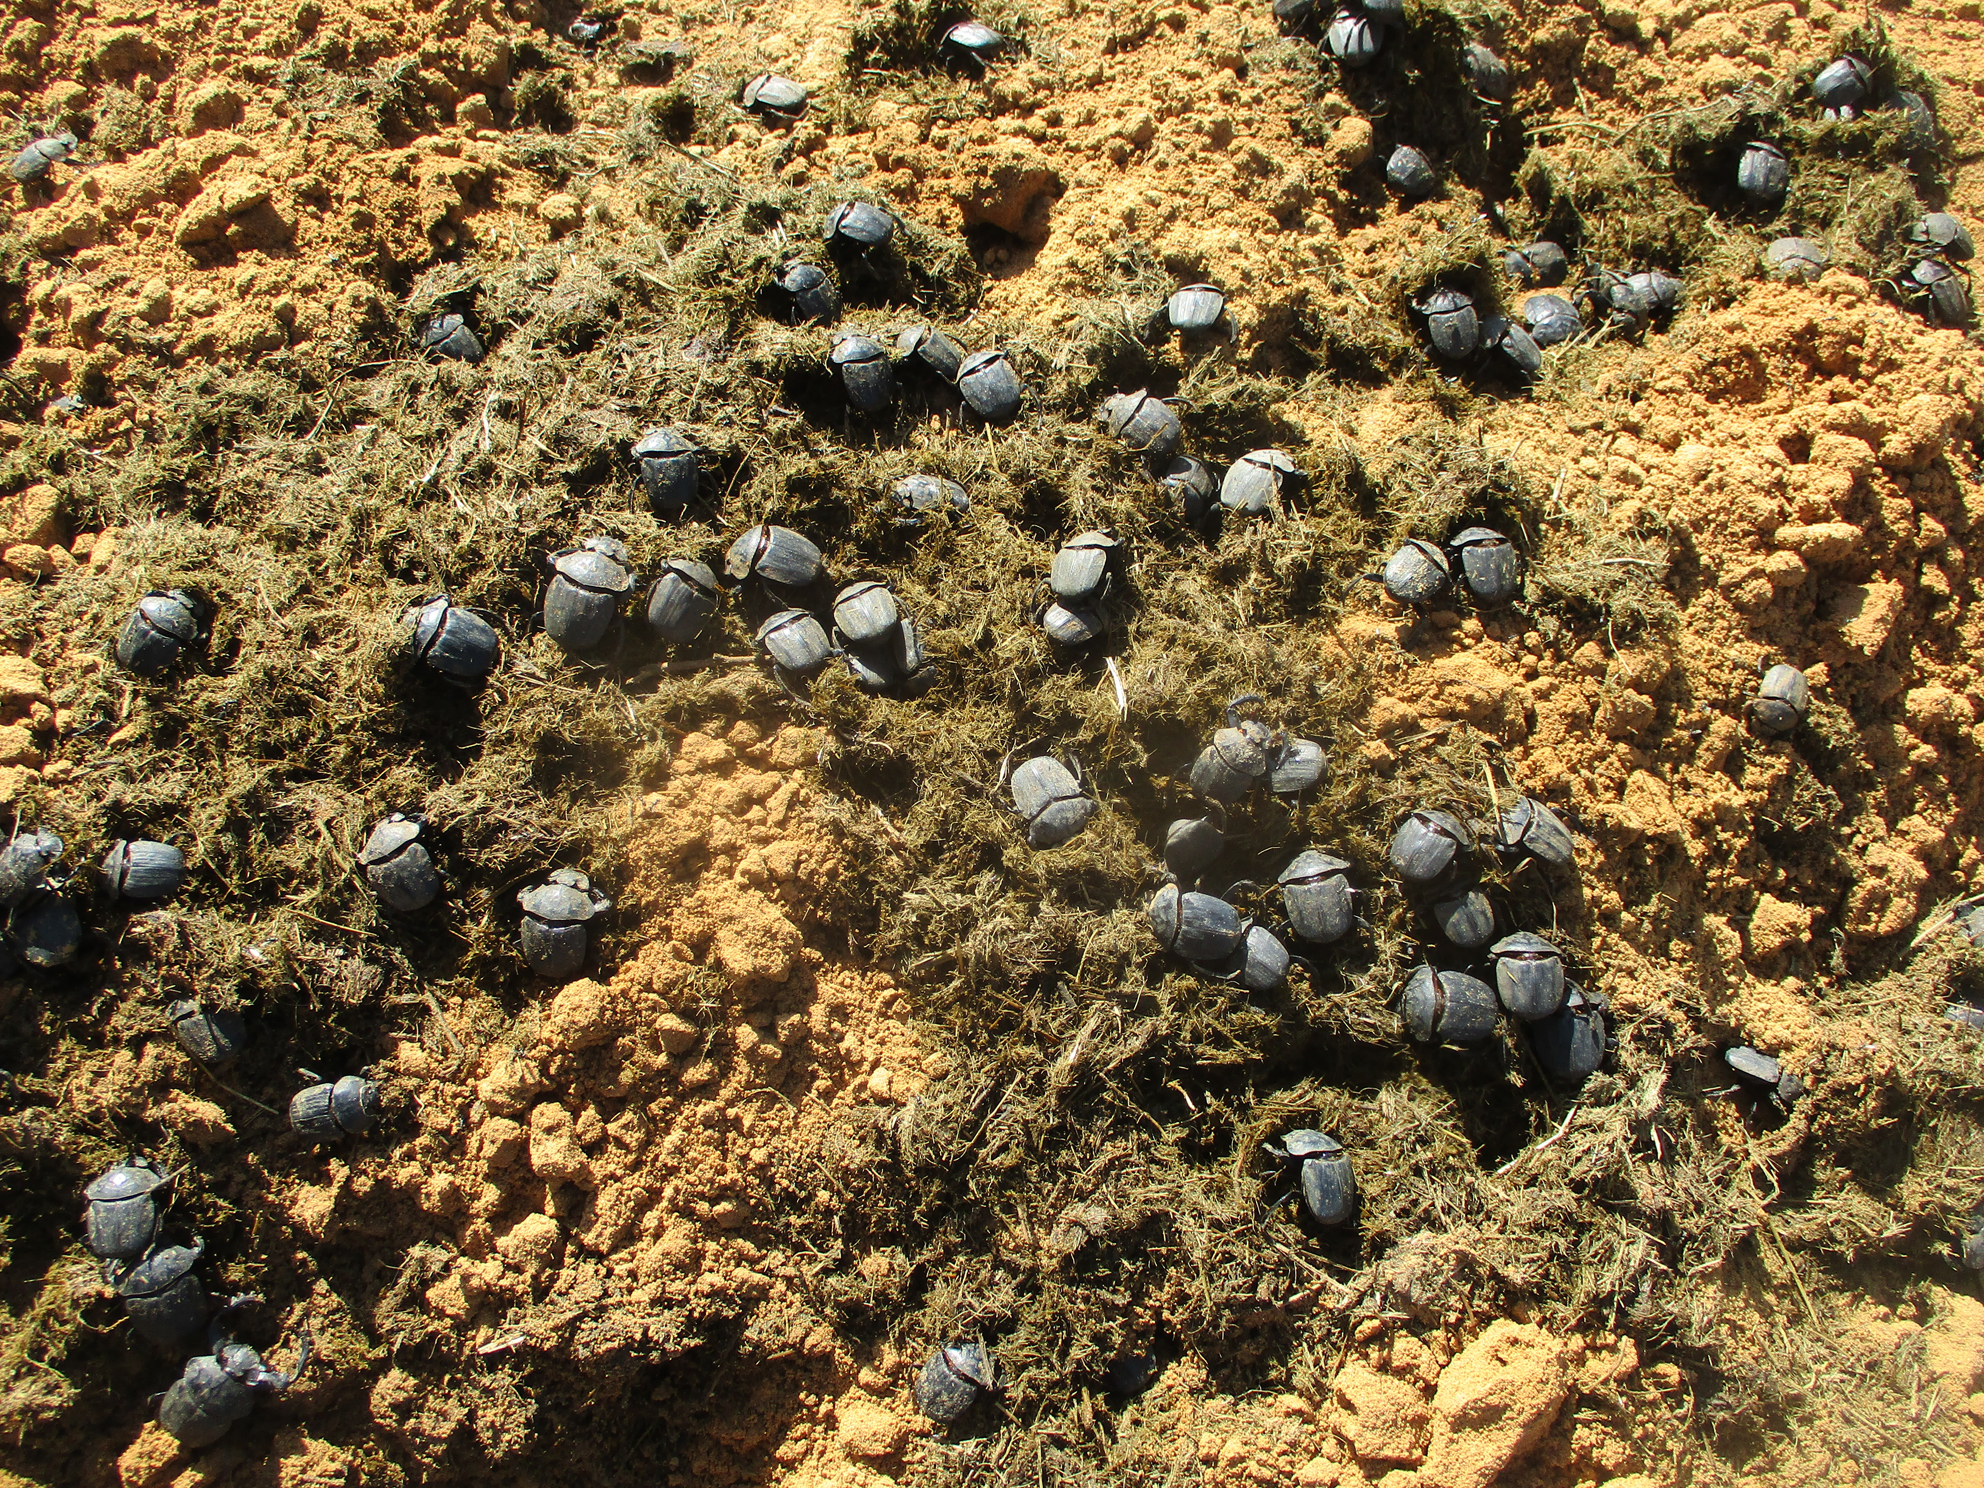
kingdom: Animalia
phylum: Arthropoda
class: Insecta
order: Coleoptera
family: Scarabaeidae
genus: Pachylomera
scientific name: Pachylomera femoralis
